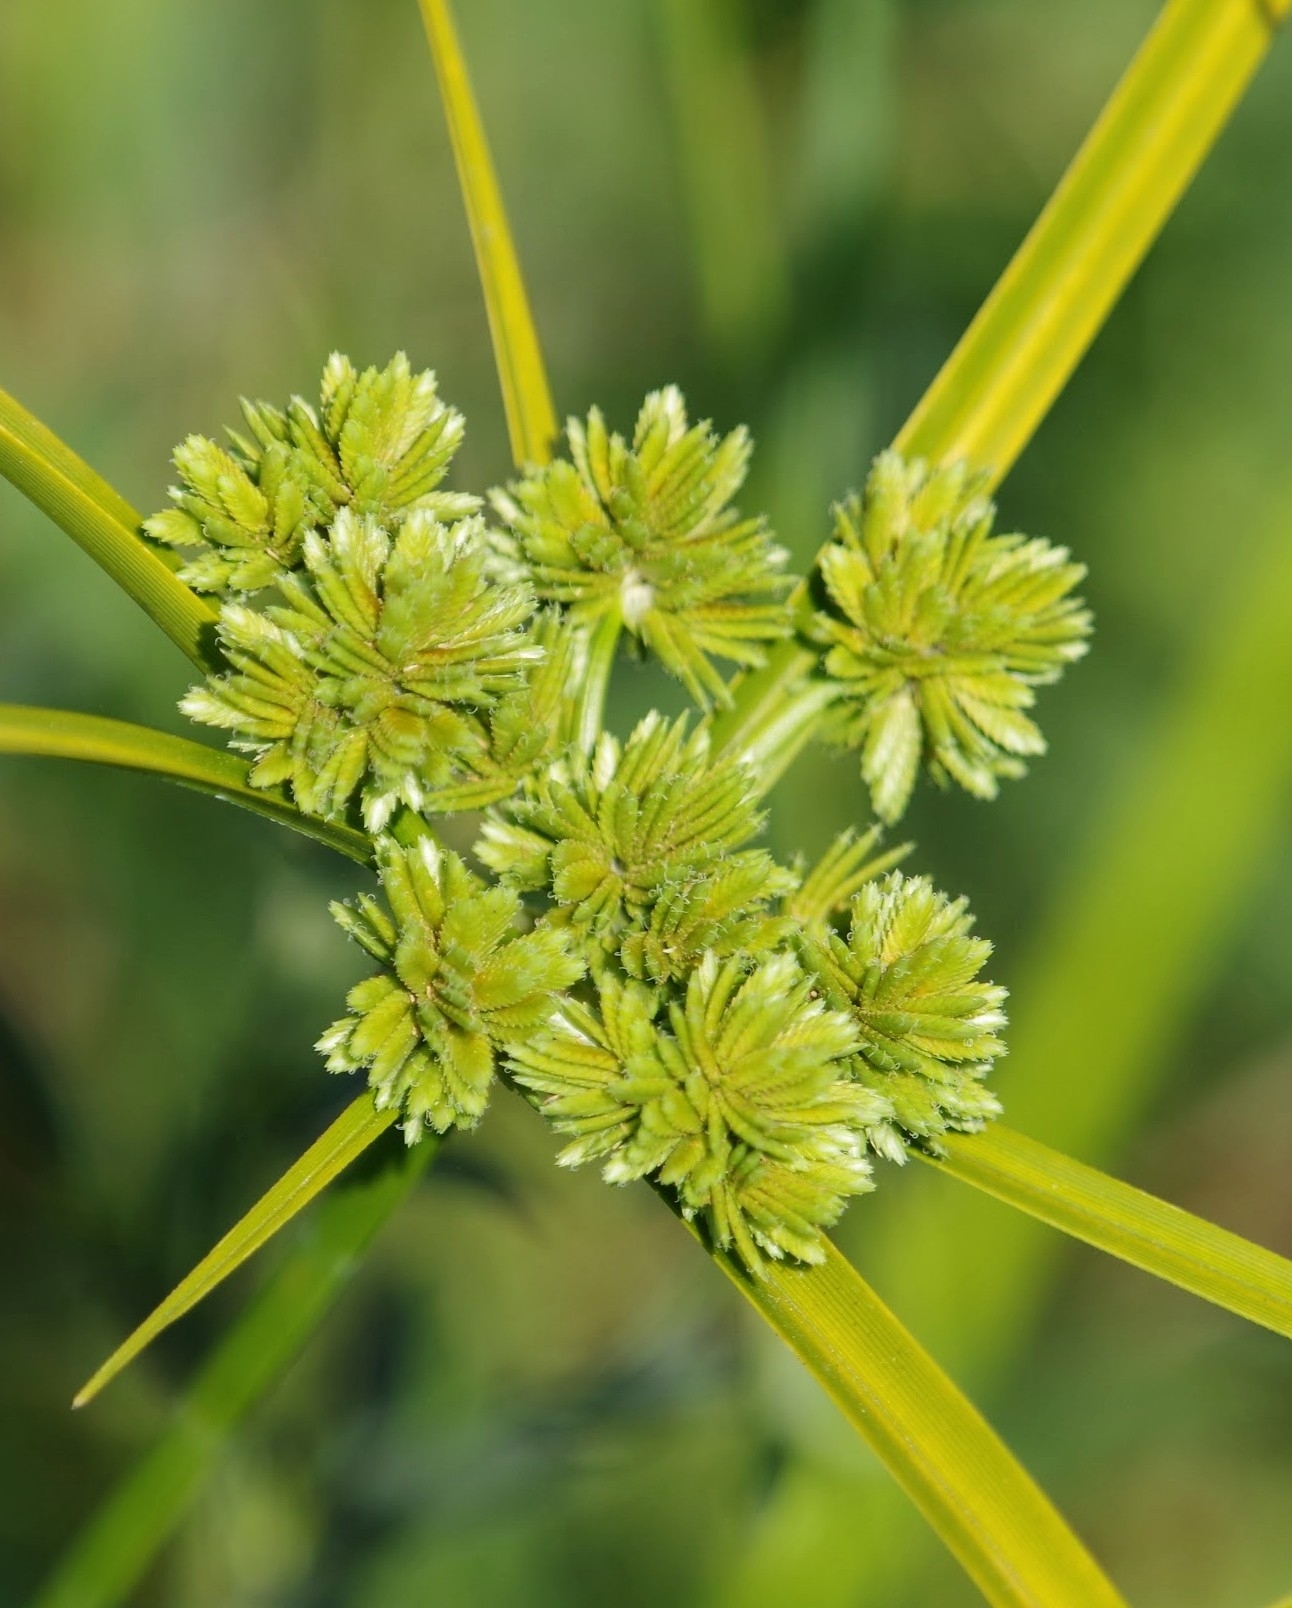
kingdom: Plantae
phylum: Tracheophyta
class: Liliopsida
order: Poales
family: Cyperaceae
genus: Cyperus
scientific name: Cyperus eragrostis
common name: Tall flatsedge
